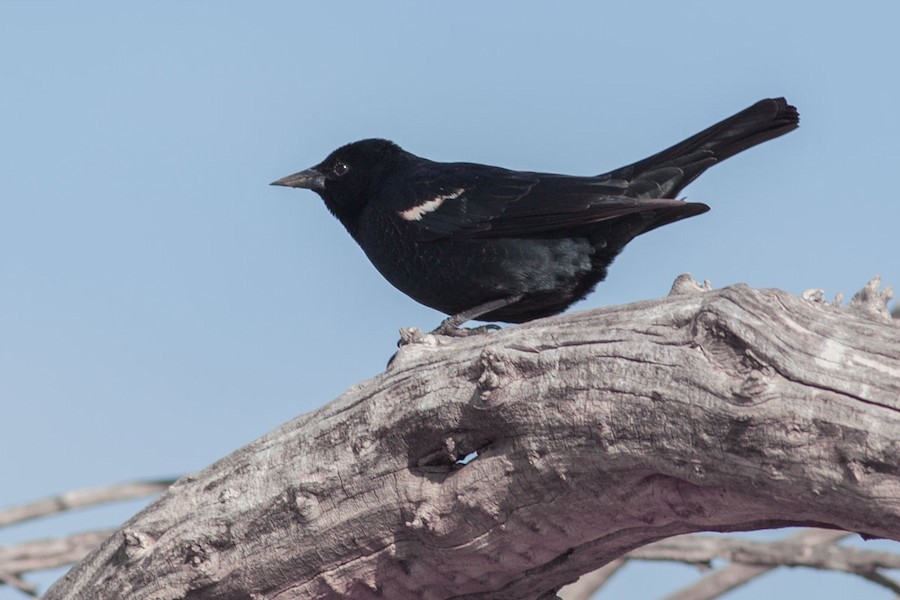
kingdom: Animalia
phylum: Chordata
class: Aves
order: Passeriformes
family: Icteridae
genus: Agelaius
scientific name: Agelaius tricolor
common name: Tricolored blackbird
